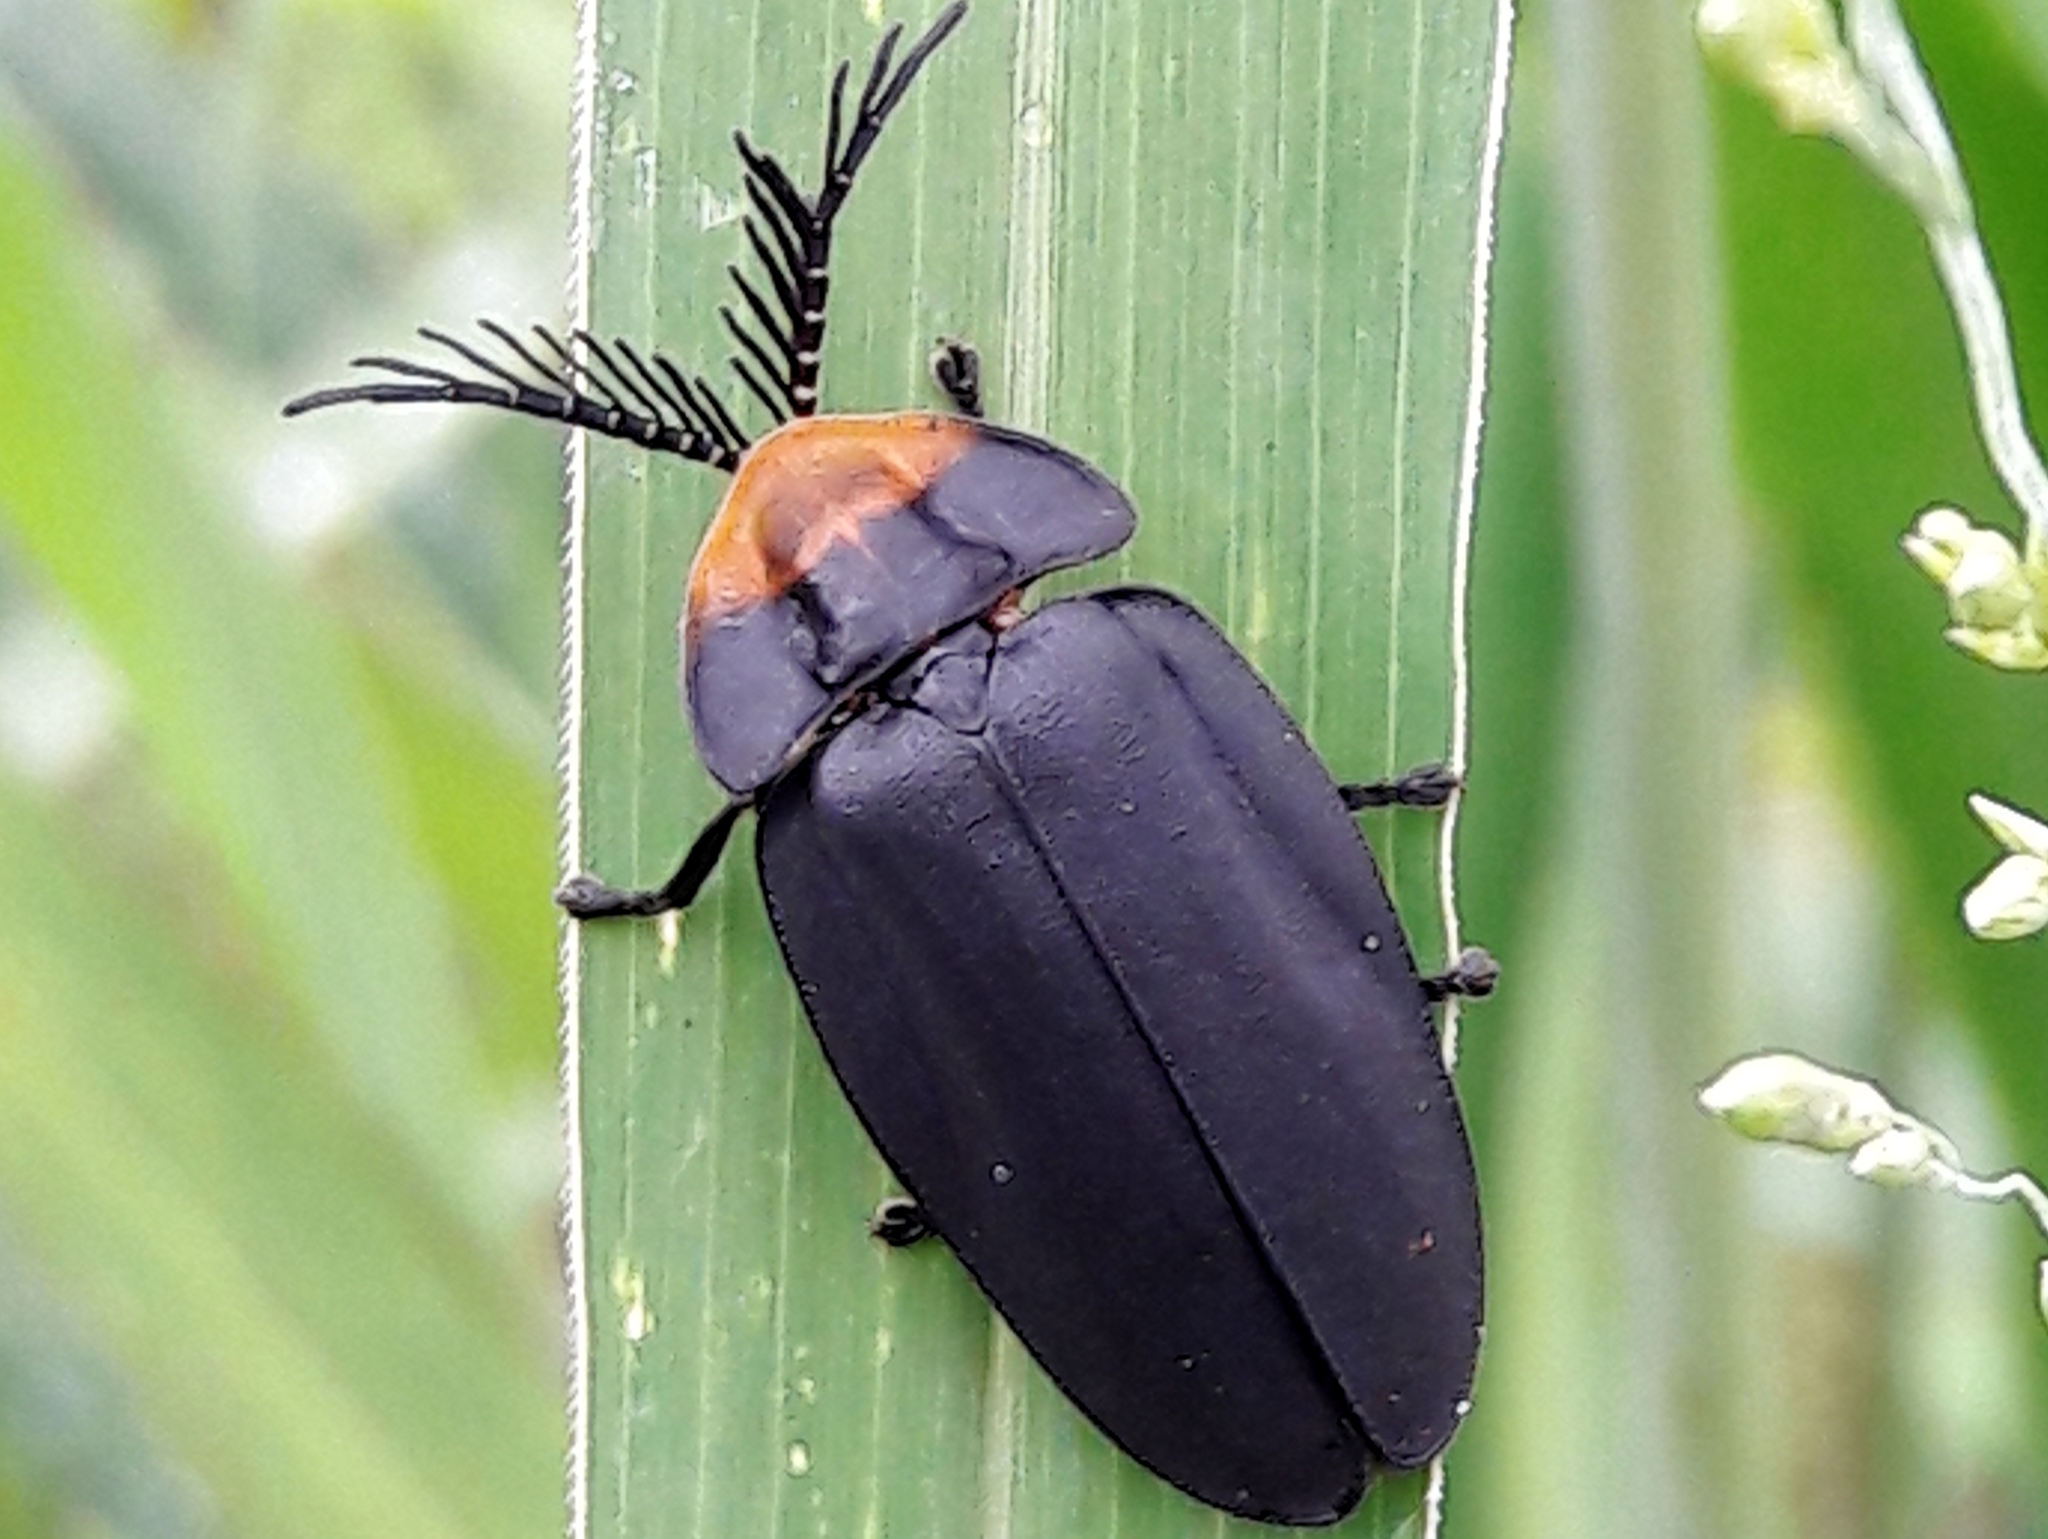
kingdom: Animalia
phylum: Arthropoda
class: Insecta
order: Coleoptera
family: Lampyridae
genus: Lucio
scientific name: Lucio blattinum
